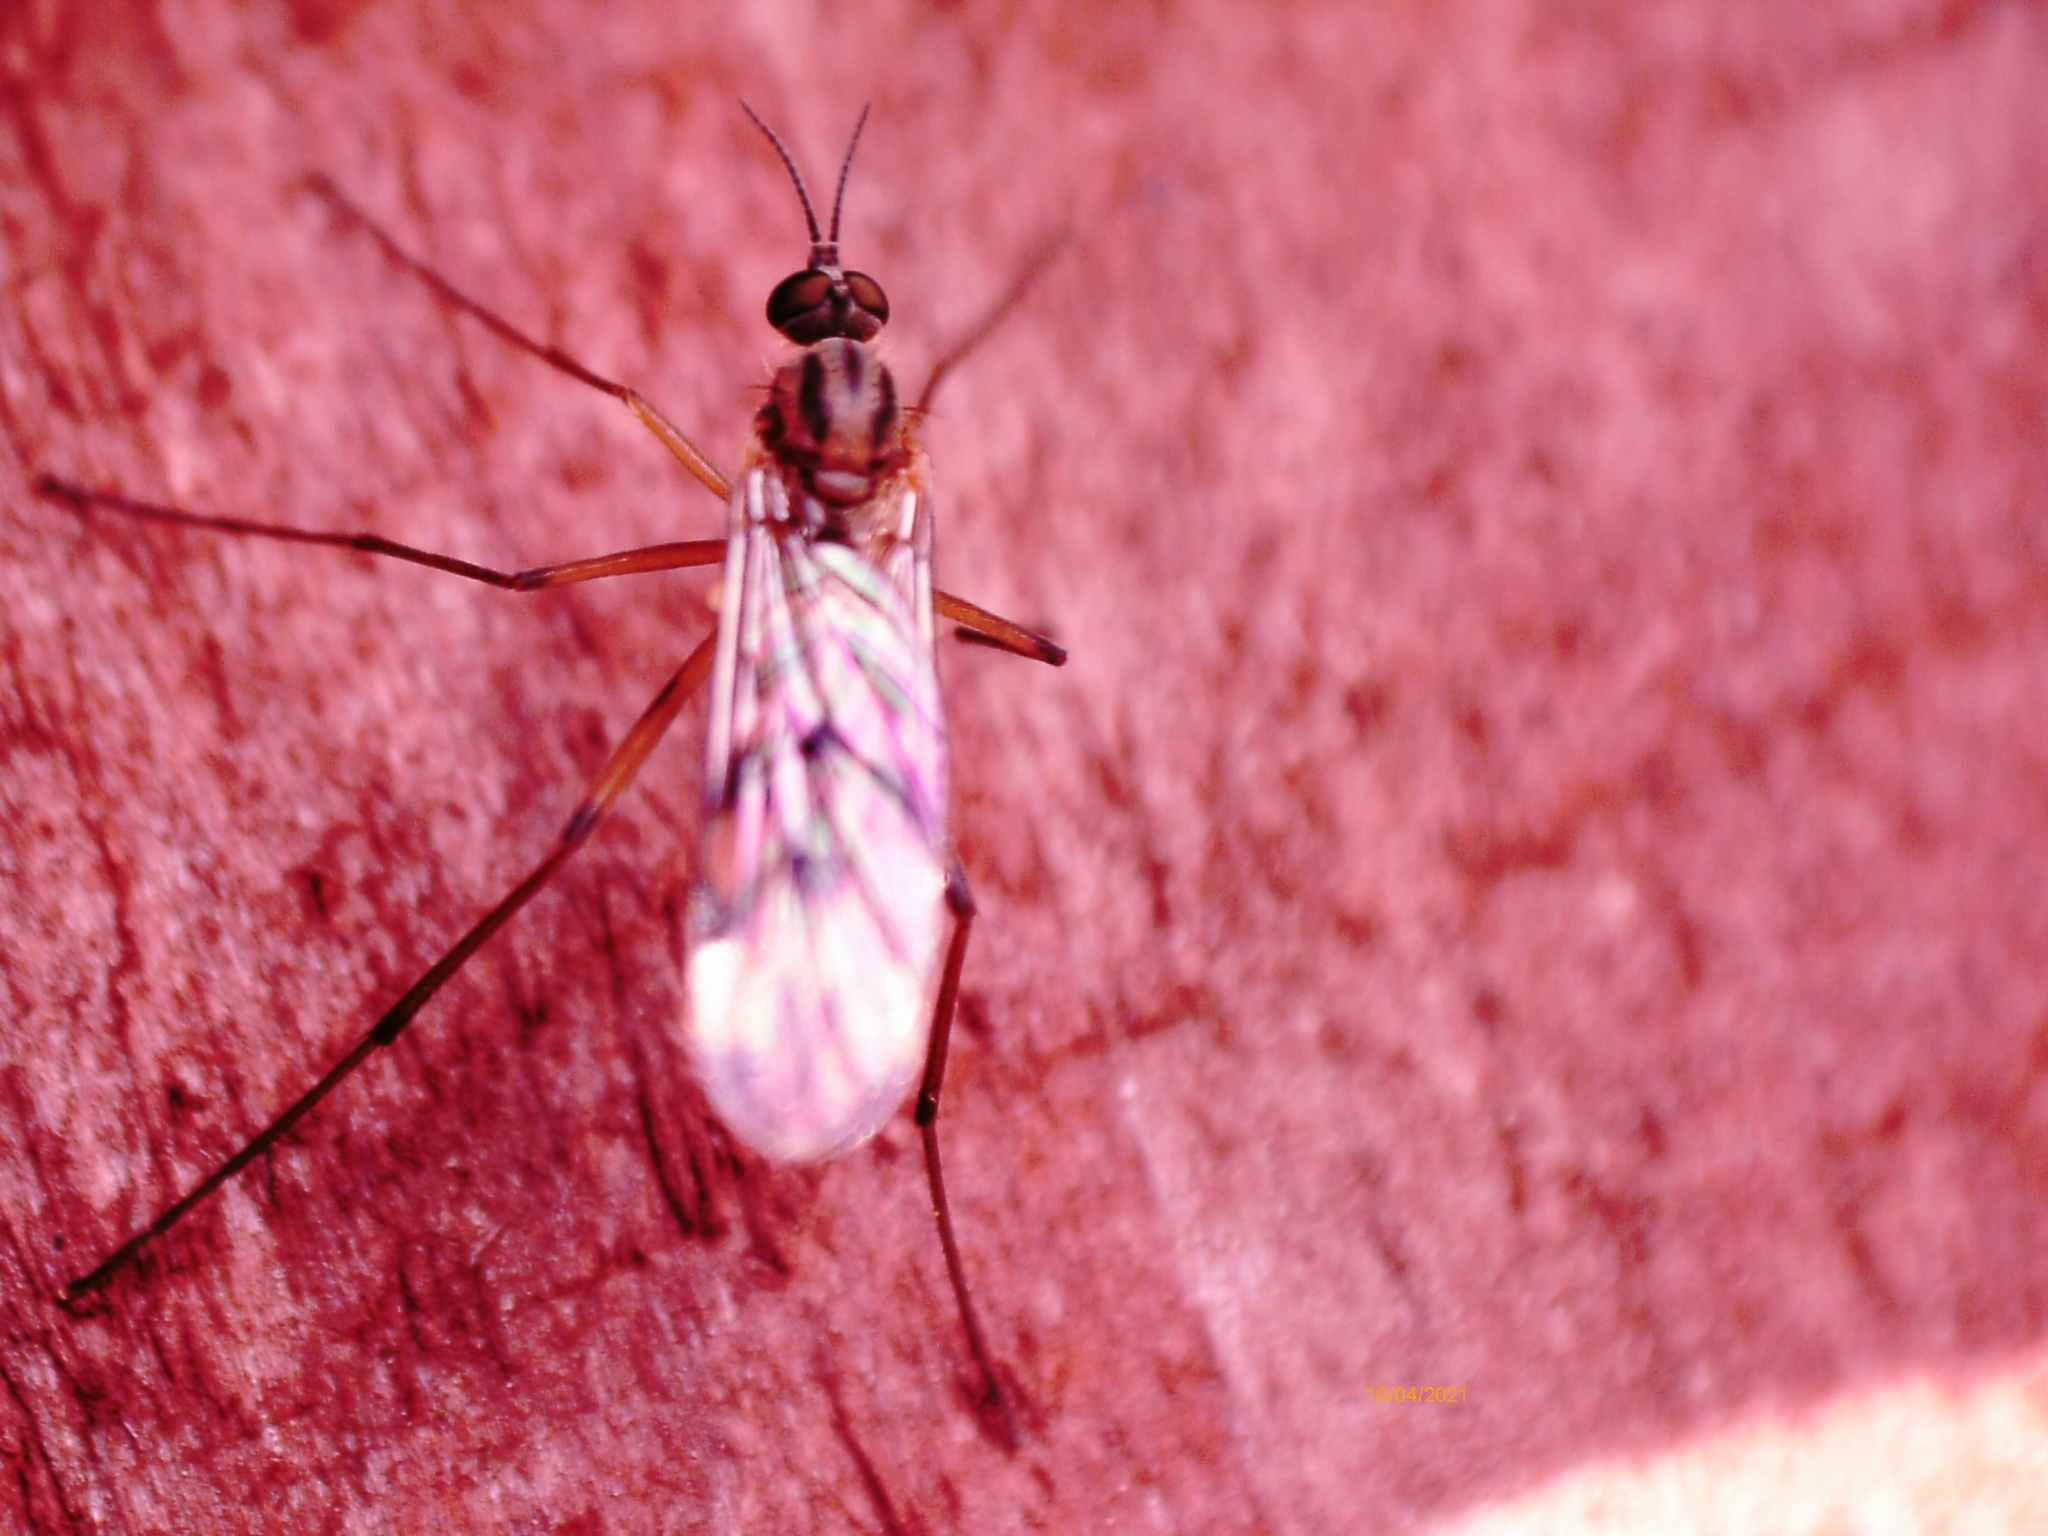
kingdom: Animalia
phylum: Arthropoda
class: Insecta
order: Diptera
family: Anisopodidae
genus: Sylvicola
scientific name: Sylvicola
